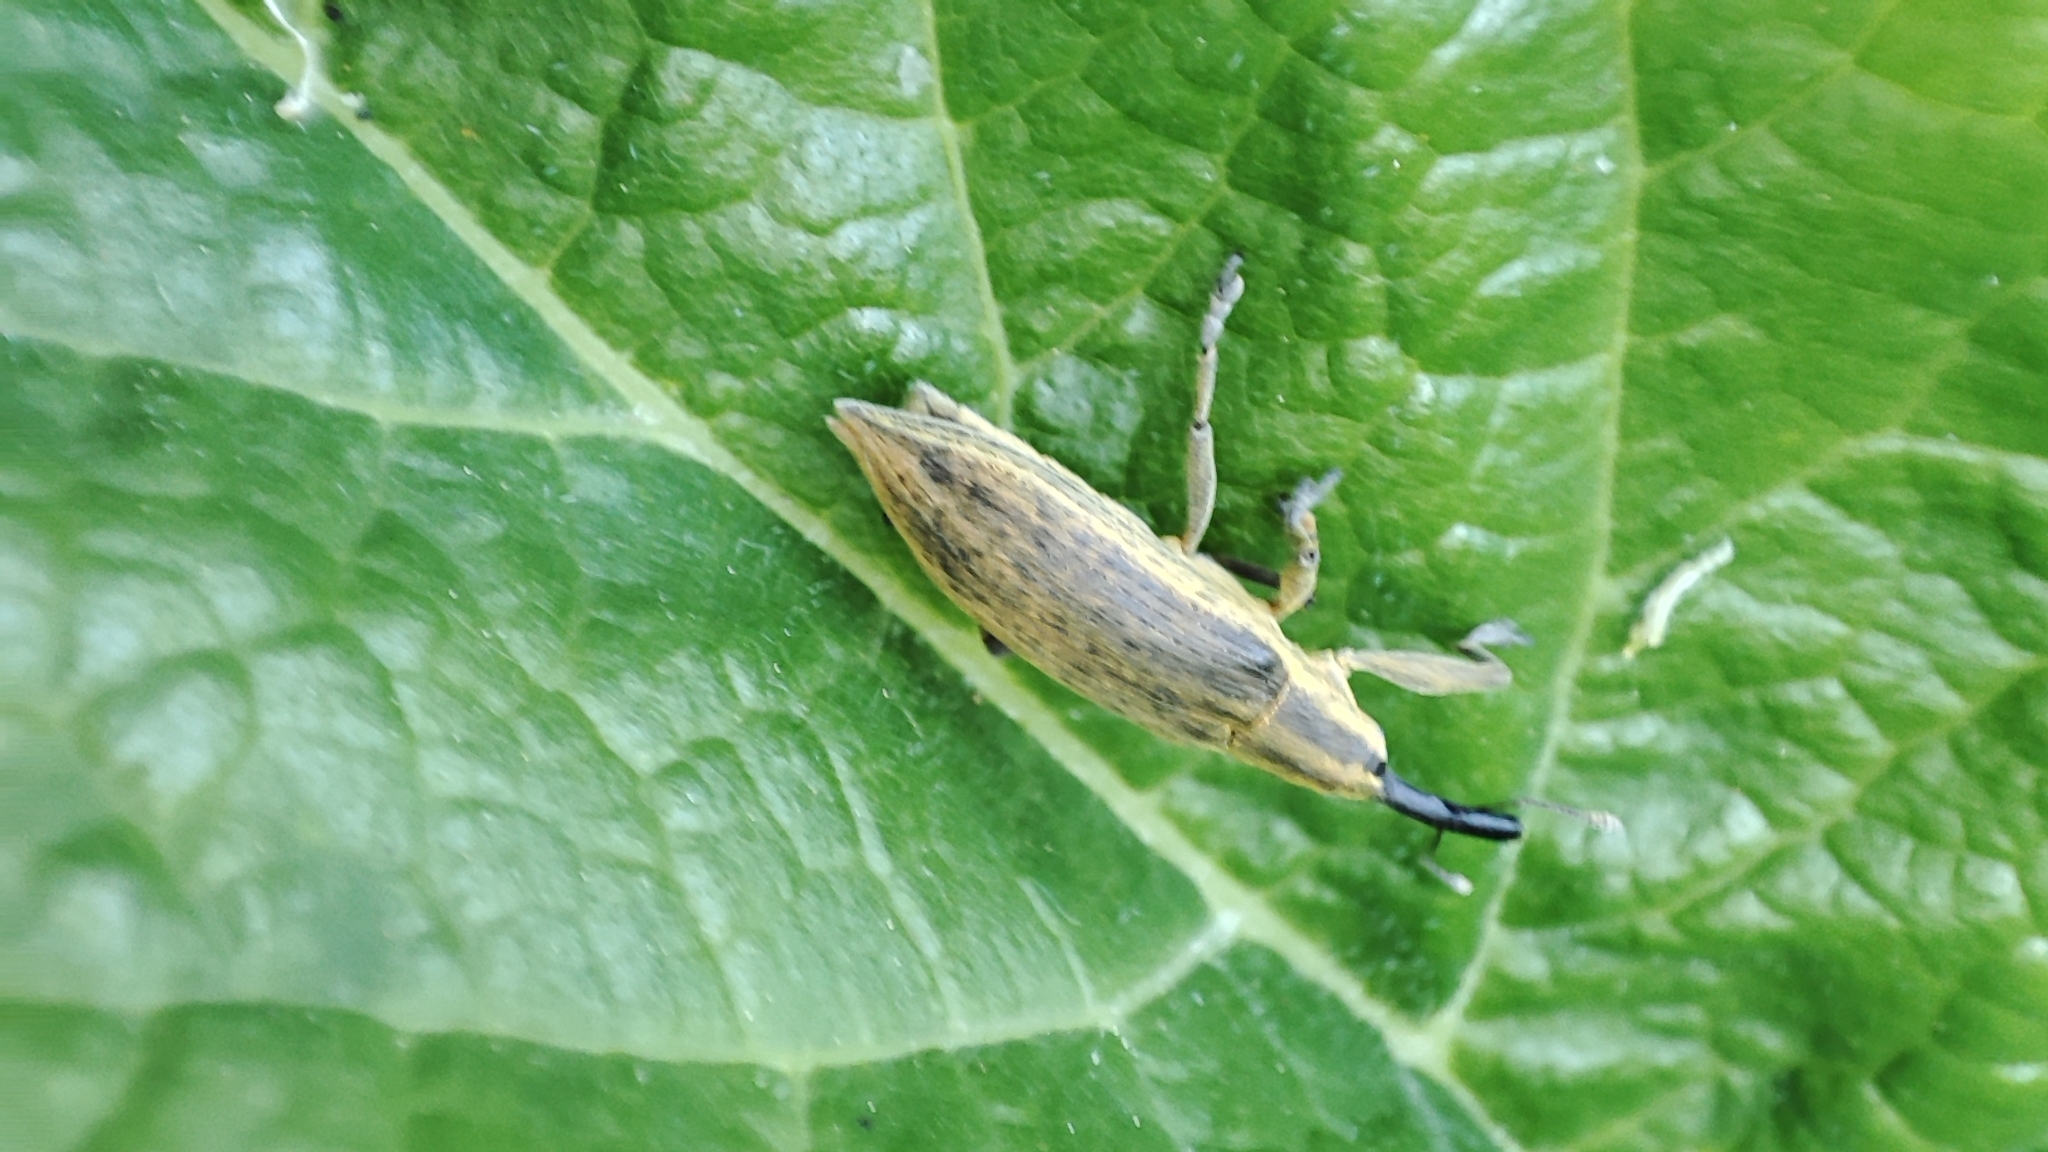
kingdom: Animalia
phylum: Arthropoda
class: Insecta
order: Coleoptera
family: Curculionidae
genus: Lixus
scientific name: Lixus iridis
